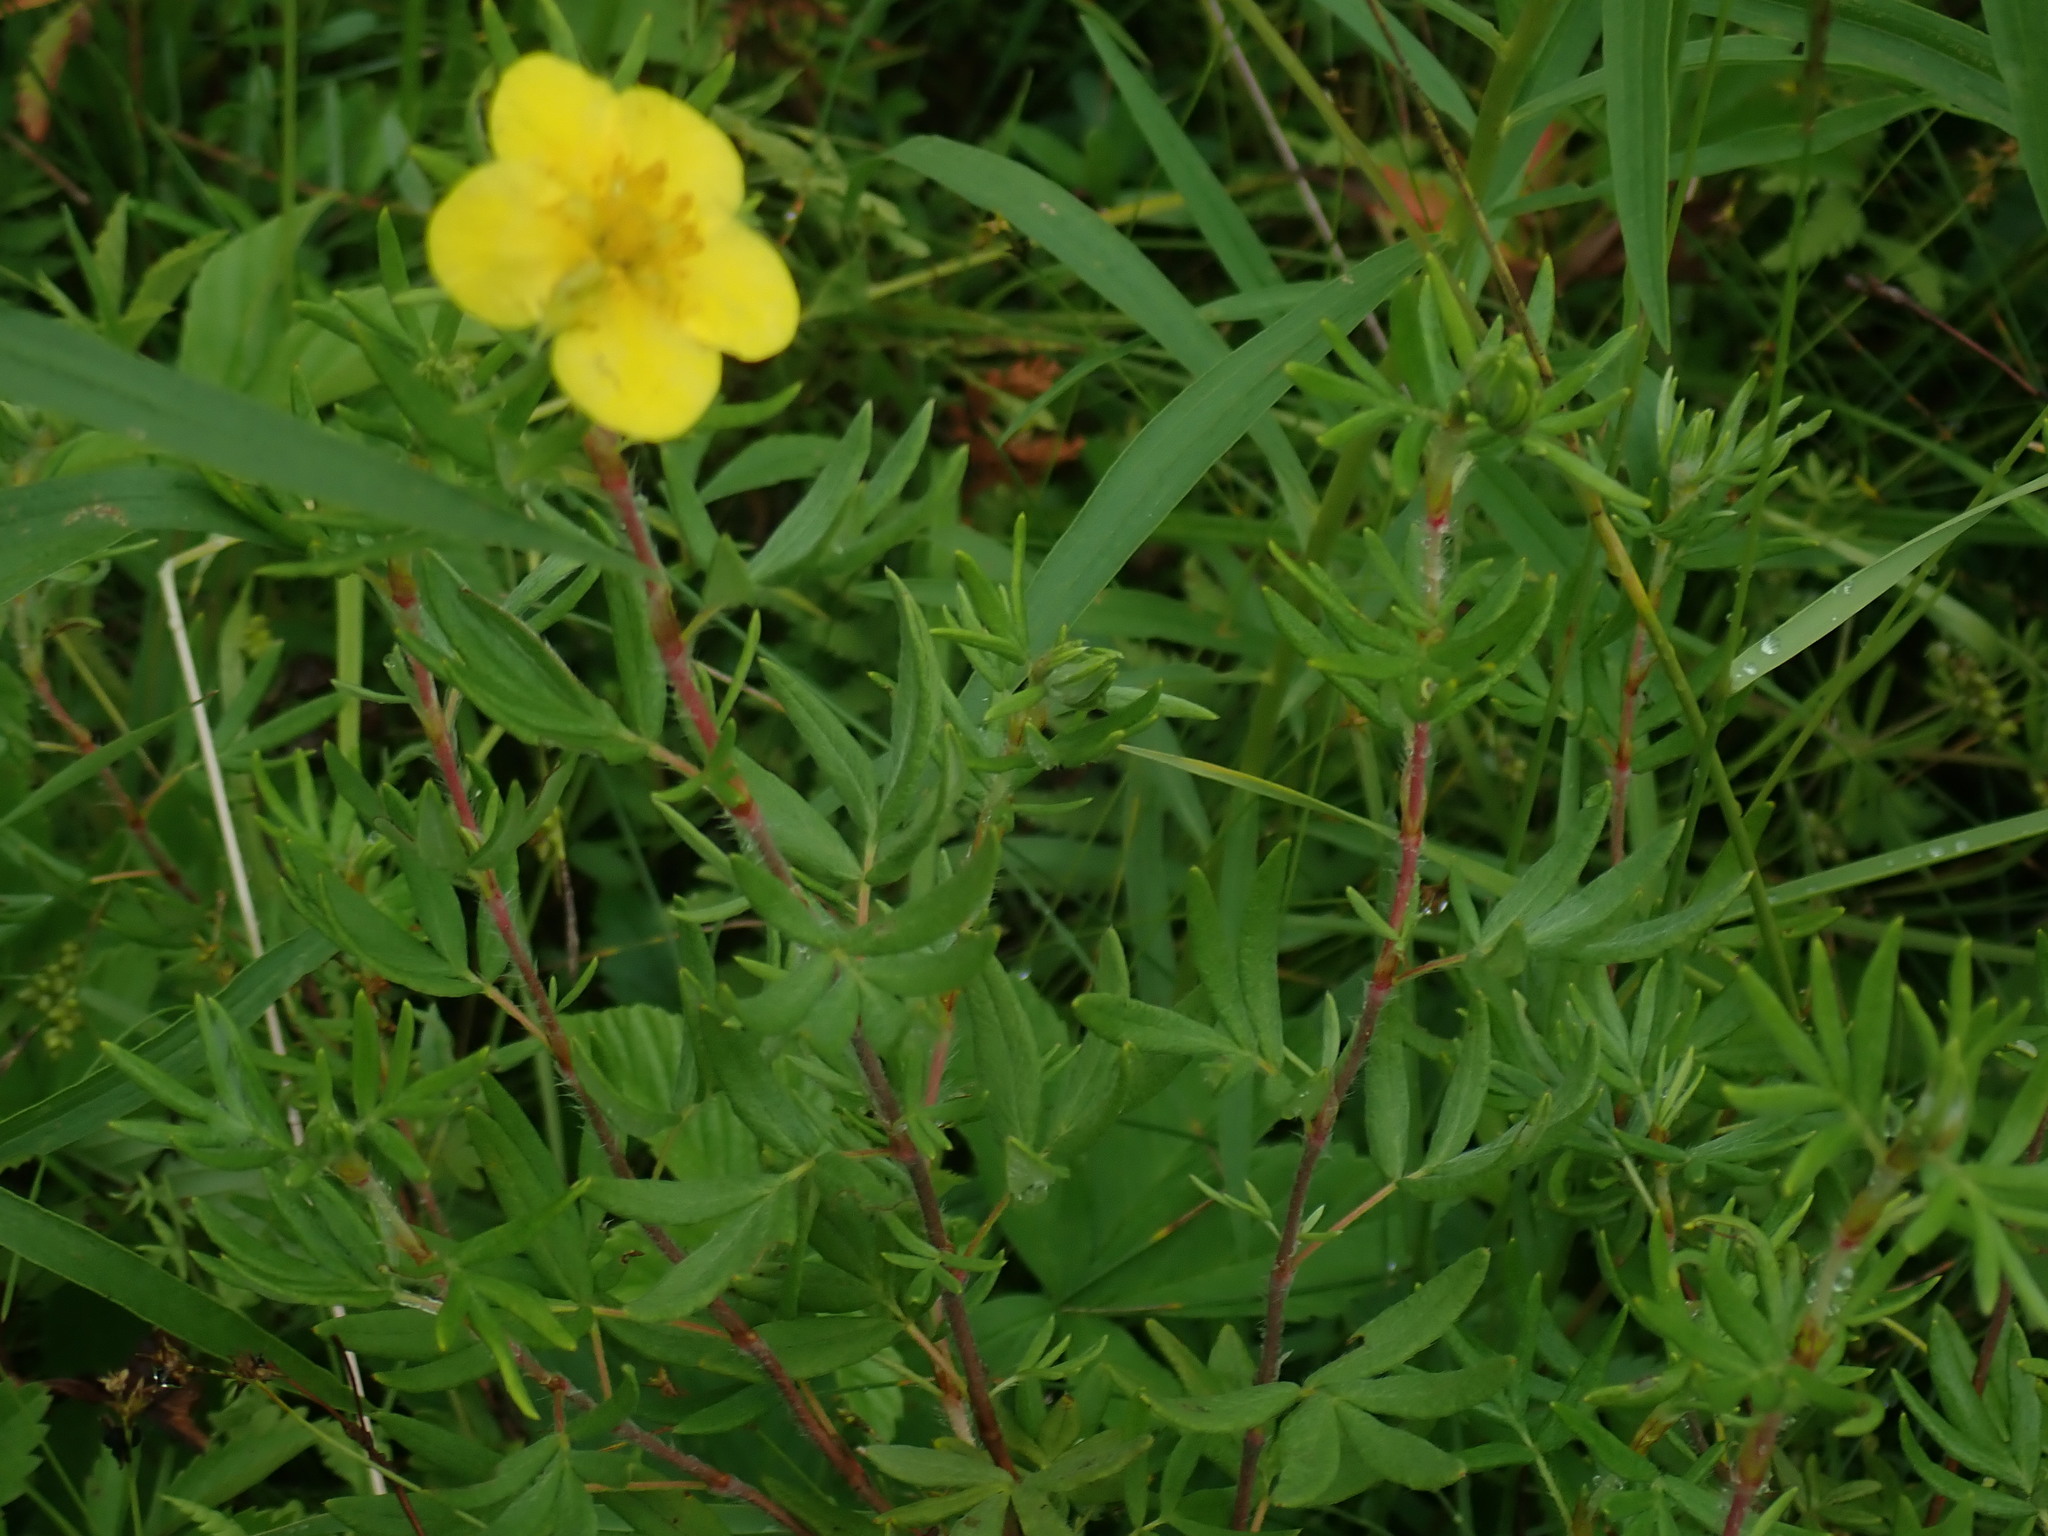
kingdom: Plantae
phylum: Tracheophyta
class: Magnoliopsida
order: Rosales
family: Rosaceae
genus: Dasiphora
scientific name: Dasiphora fruticosa
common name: Shrubby cinquefoil
